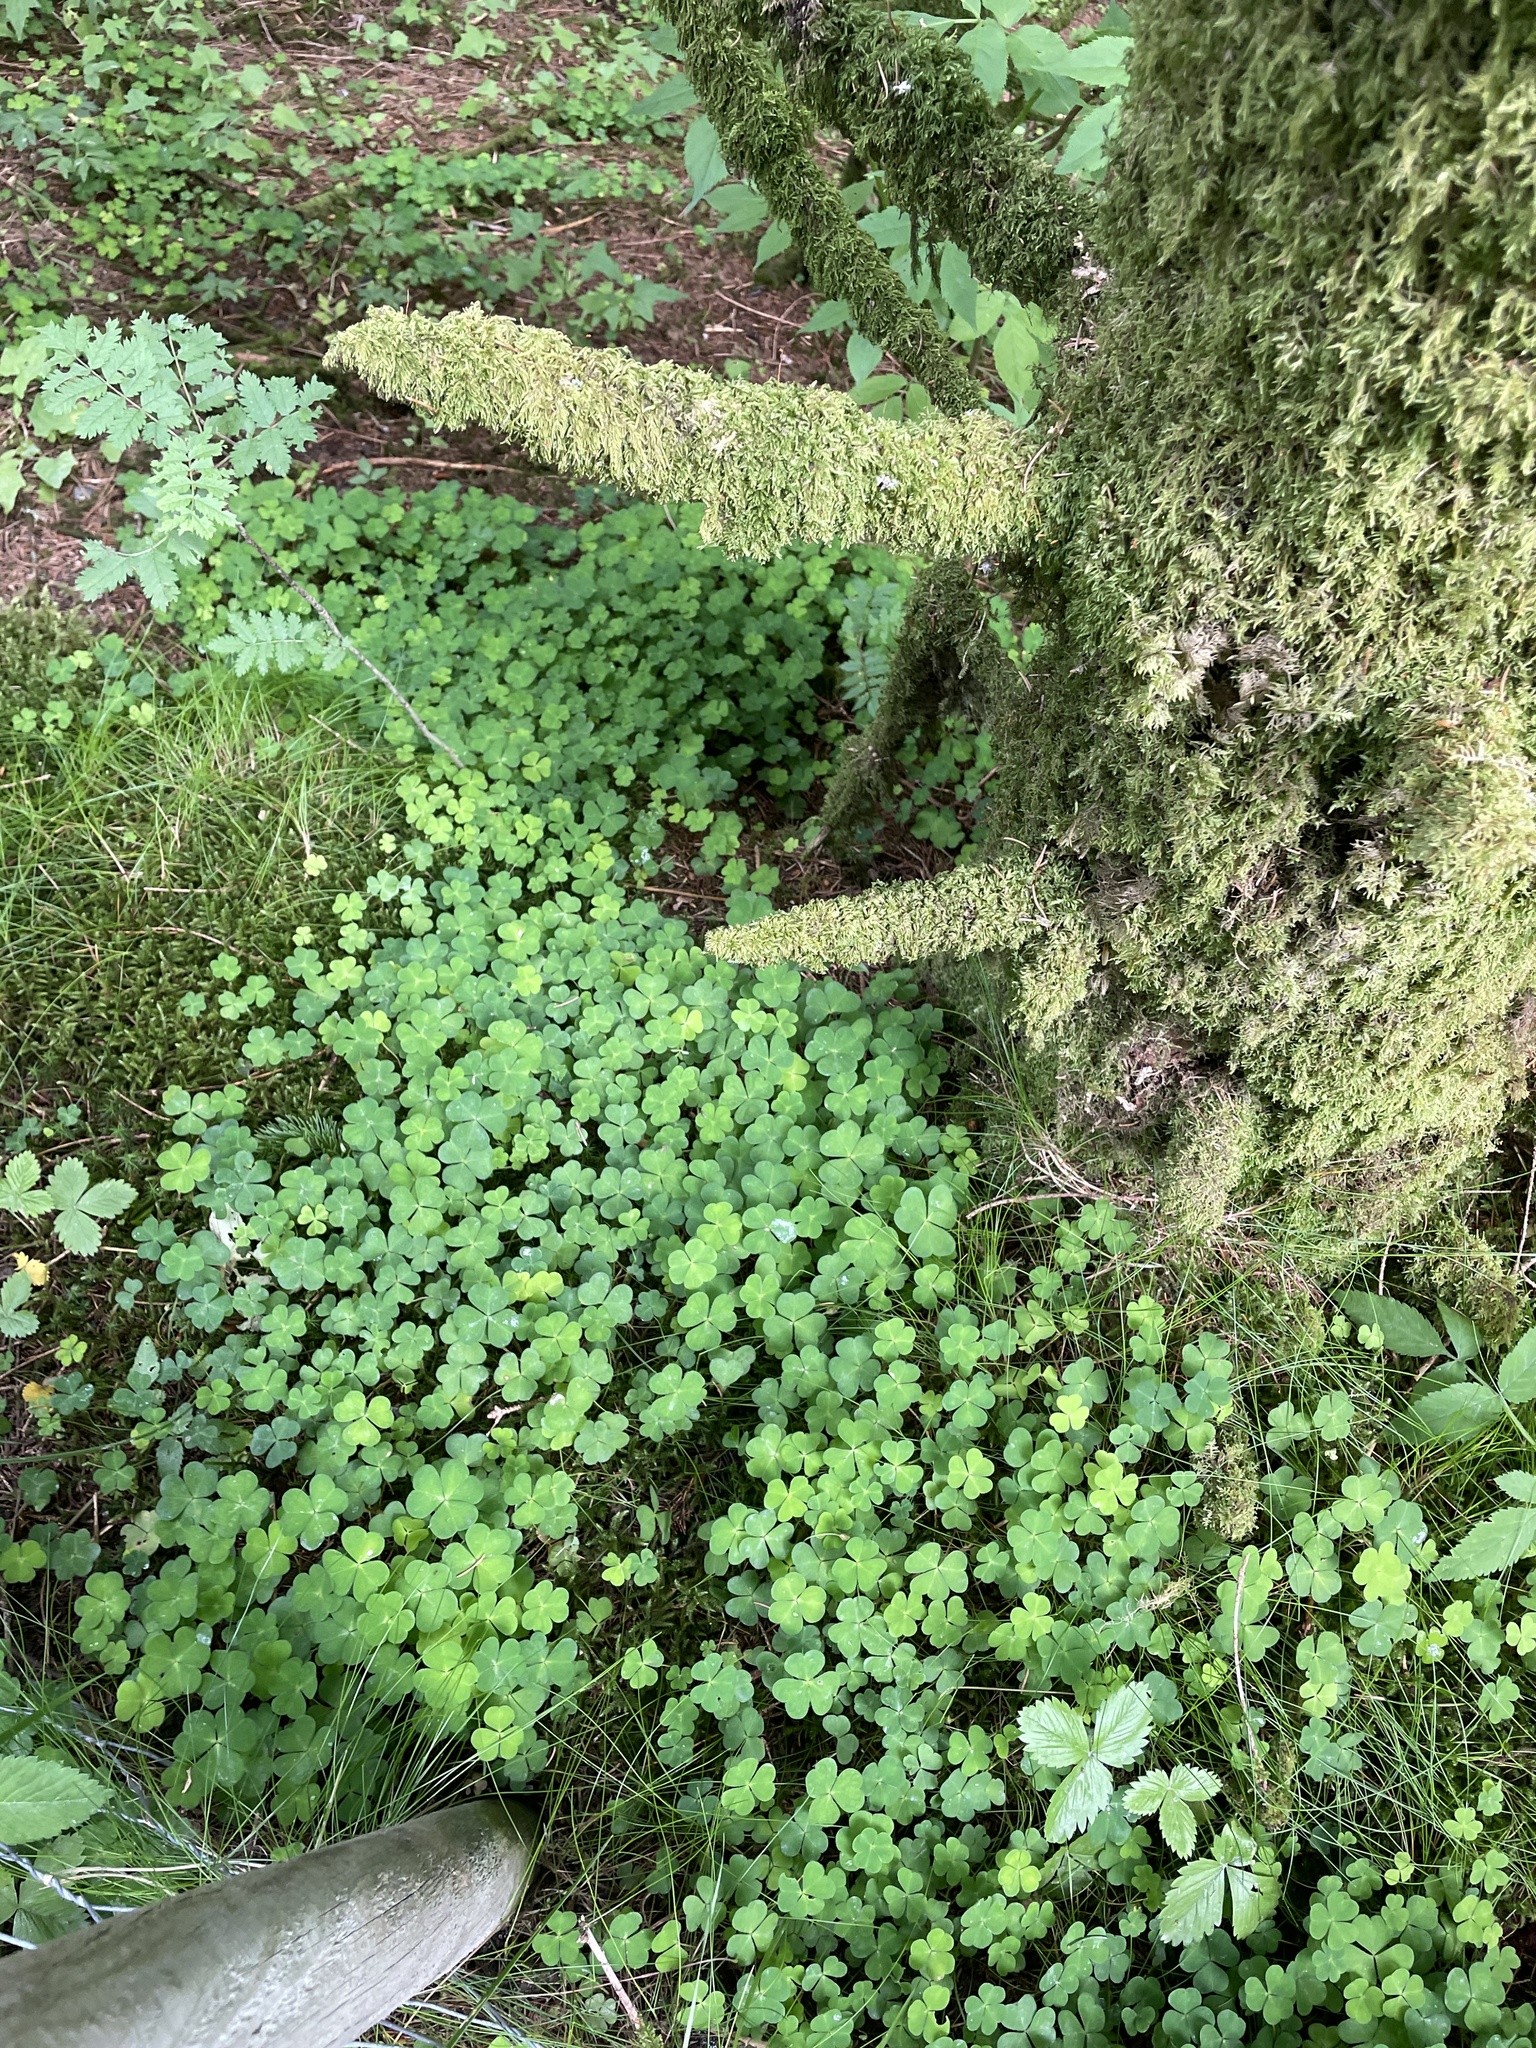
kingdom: Plantae
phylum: Tracheophyta
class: Magnoliopsida
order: Oxalidales
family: Oxalidaceae
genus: Oxalis
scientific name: Oxalis acetosella
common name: Wood-sorrel
